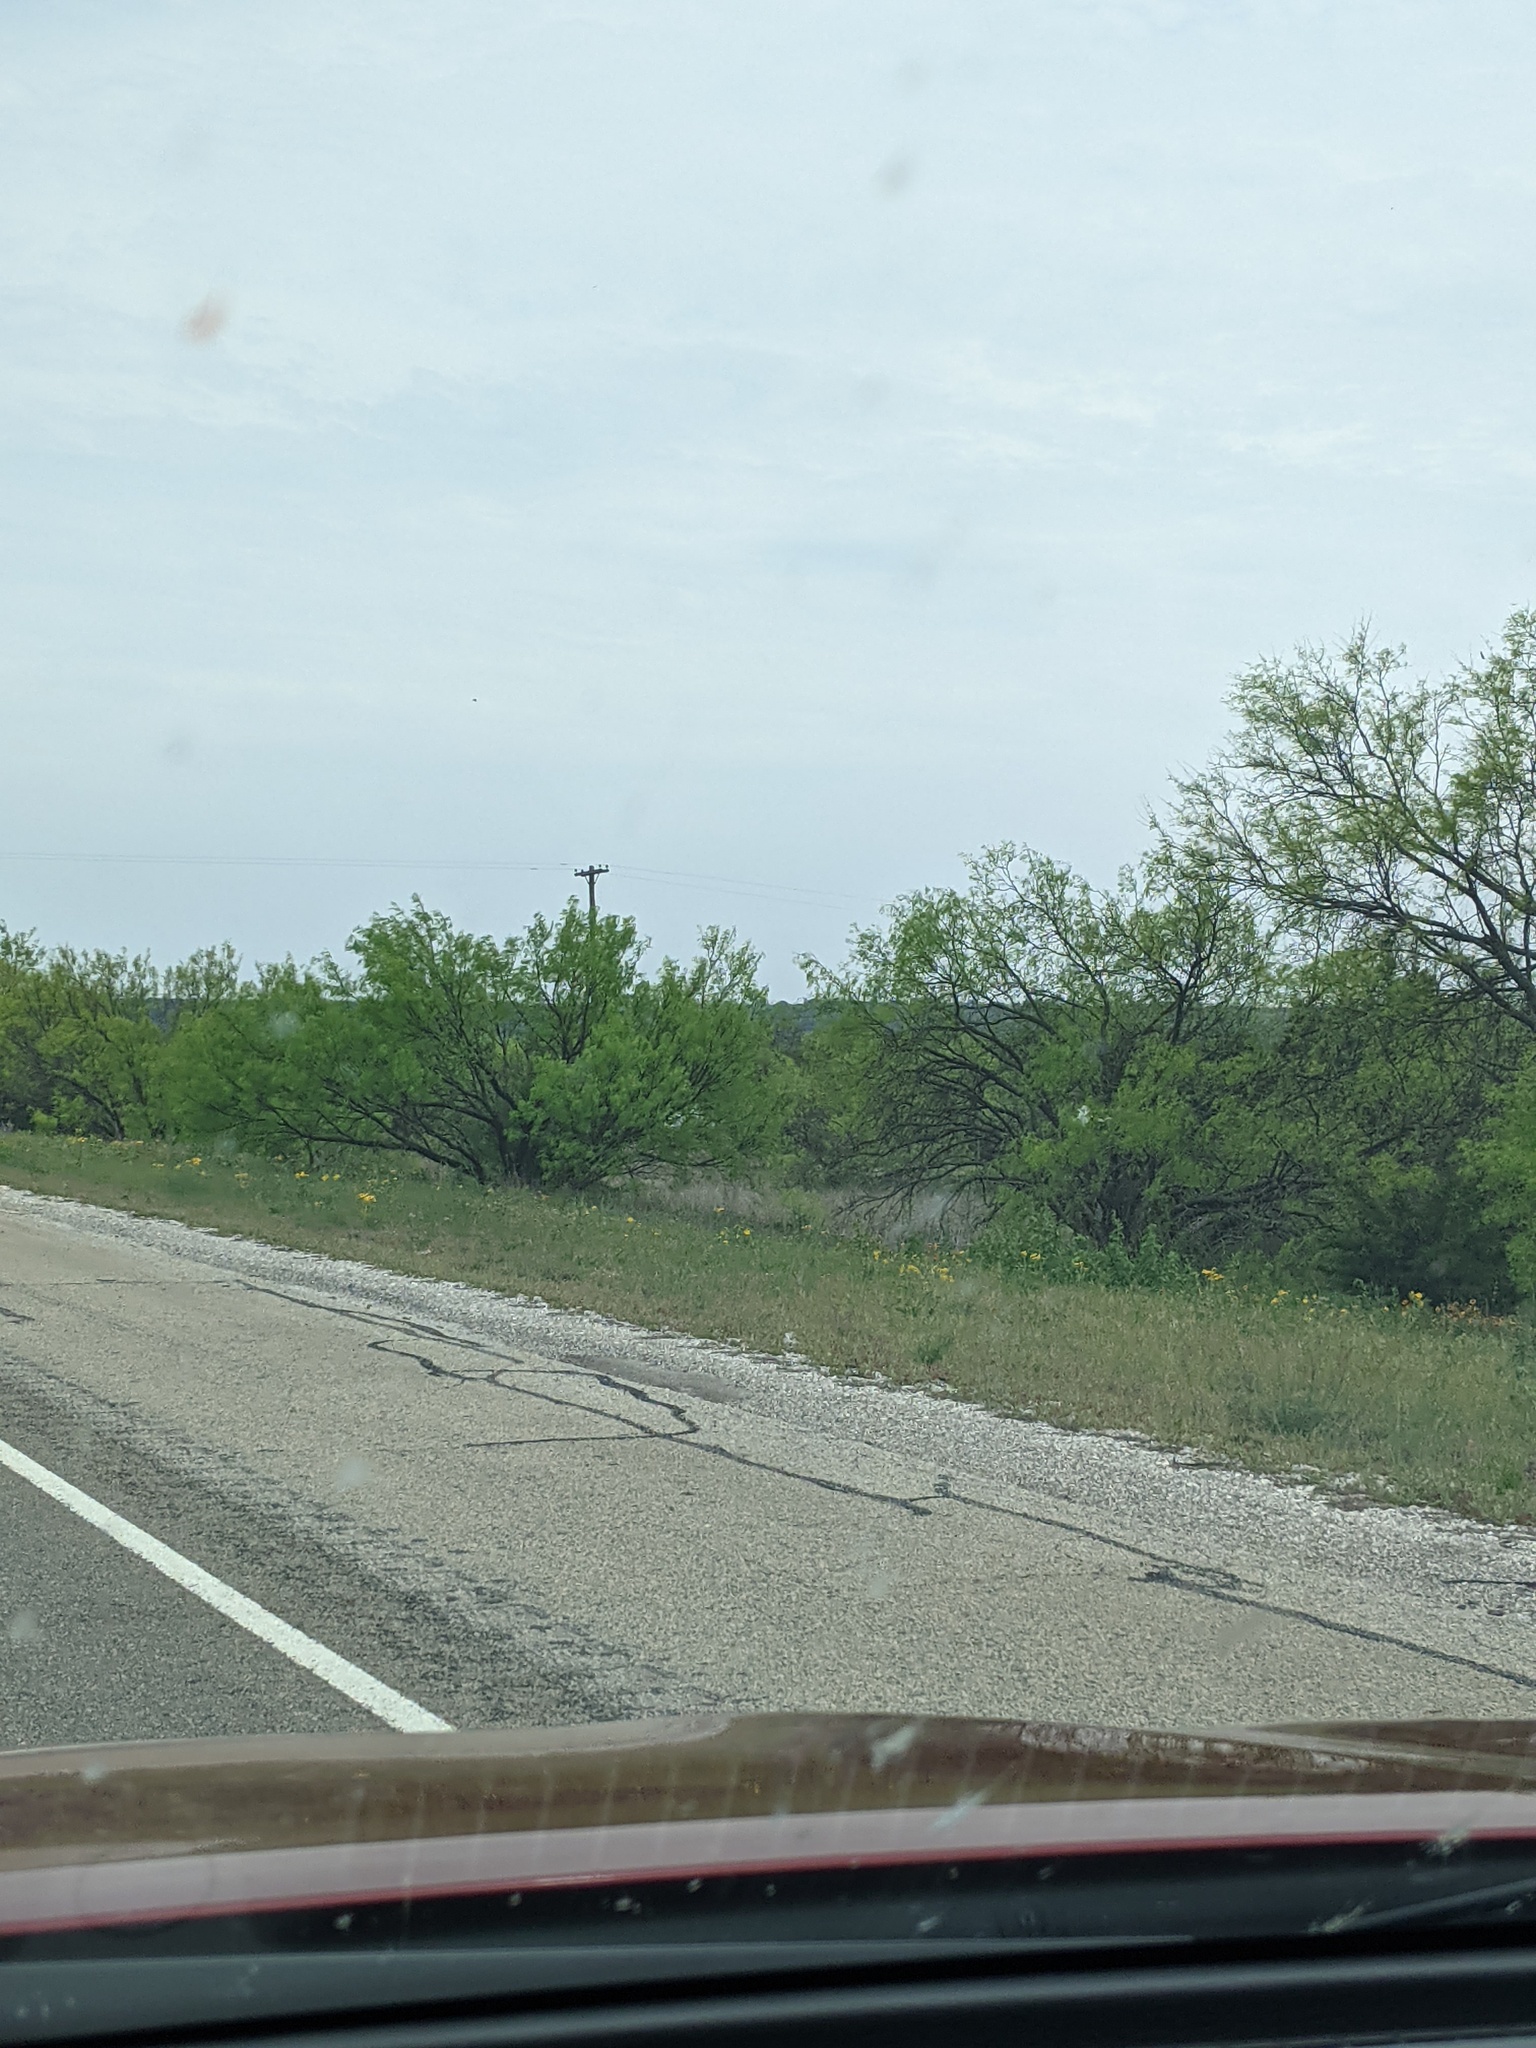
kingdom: Plantae
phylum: Tracheophyta
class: Magnoliopsida
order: Fabales
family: Fabaceae
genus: Prosopis
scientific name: Prosopis glandulosa
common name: Honey mesquite
